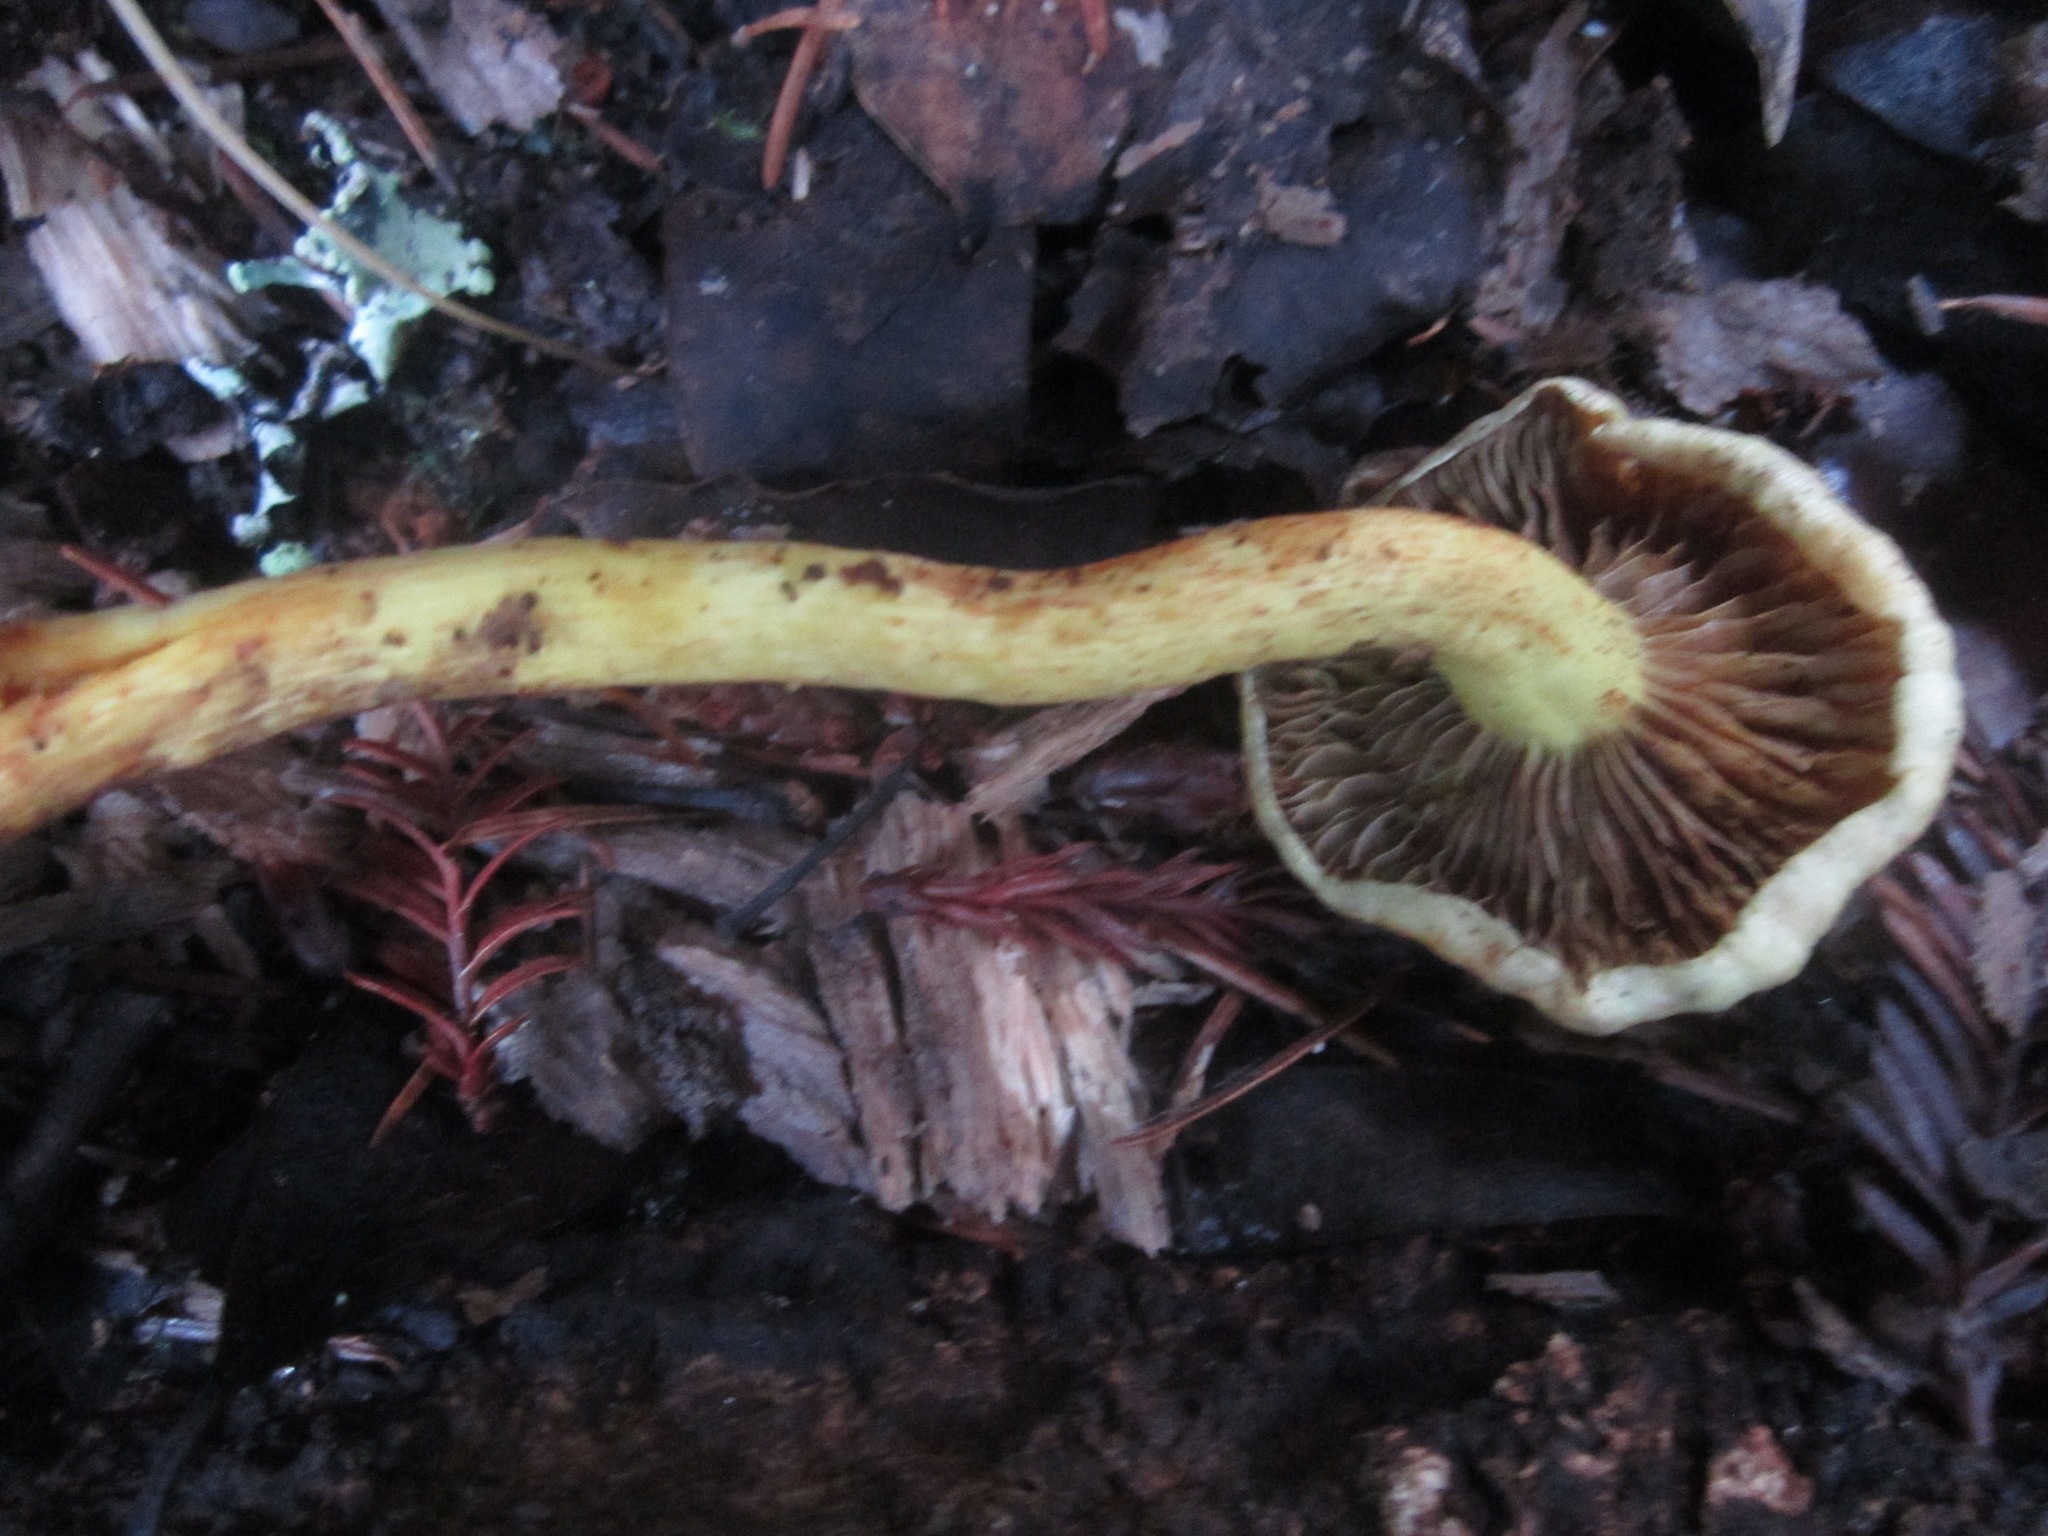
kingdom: Fungi
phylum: Basidiomycota
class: Agaricomycetes
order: Agaricales
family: Strophariaceae
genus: Hypholoma
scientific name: Hypholoma fasciculare
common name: Sulphur tuft
